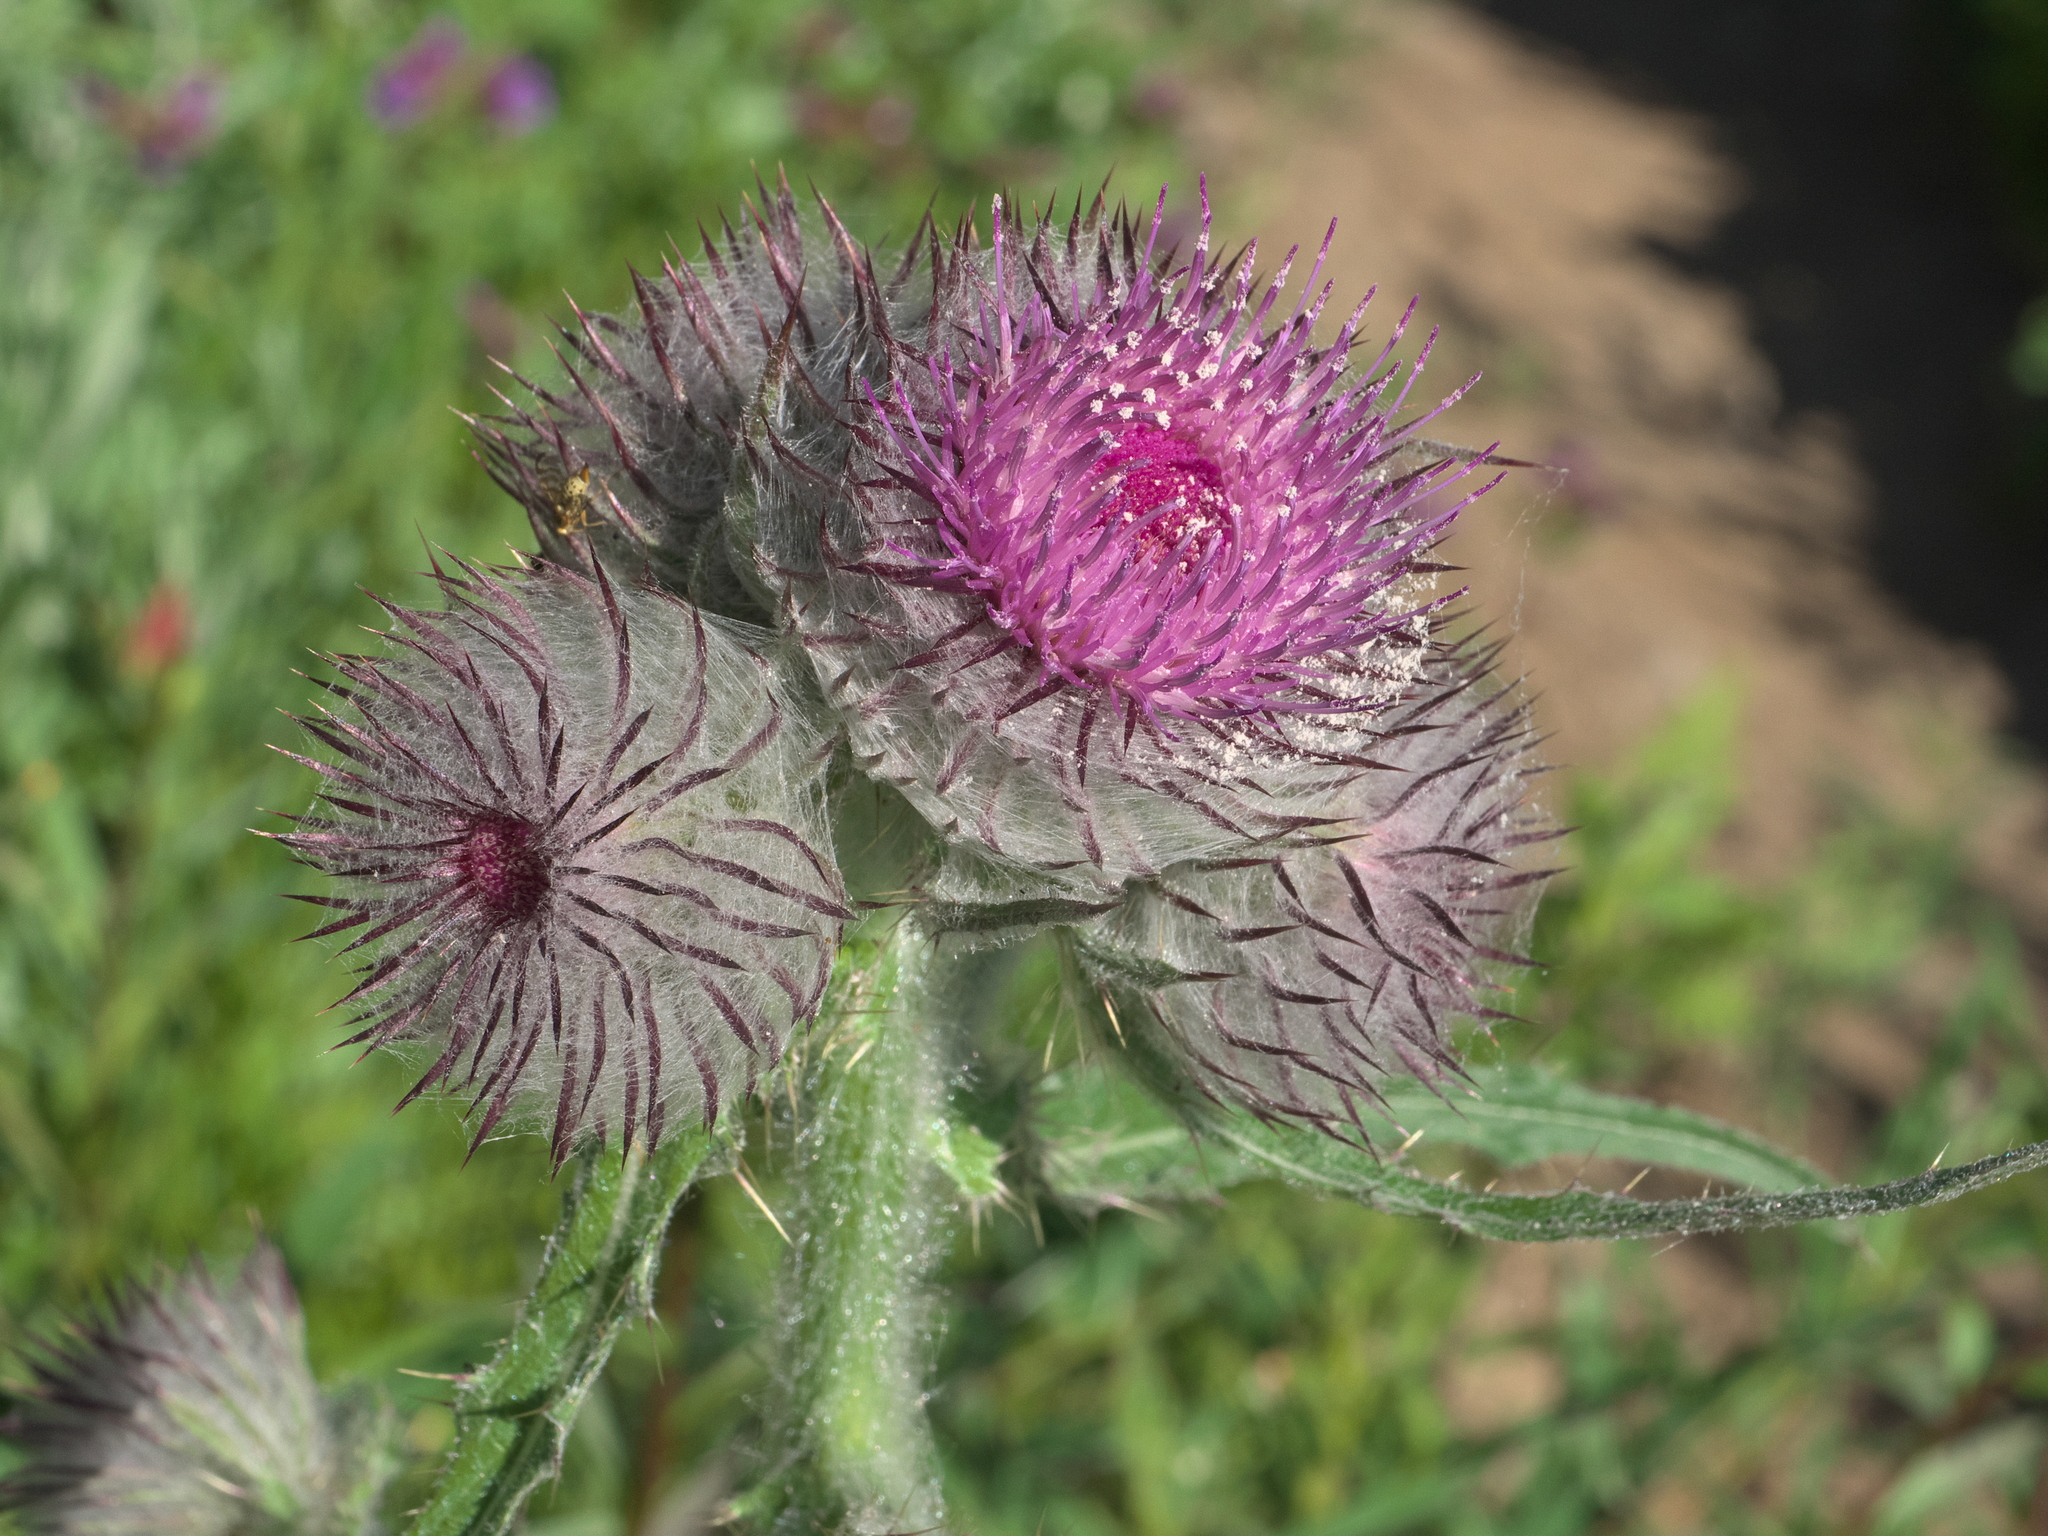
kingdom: Plantae
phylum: Tracheophyta
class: Magnoliopsida
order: Asterales
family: Asteraceae
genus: Cirsium
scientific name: Cirsium edule
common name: Indian thistle
